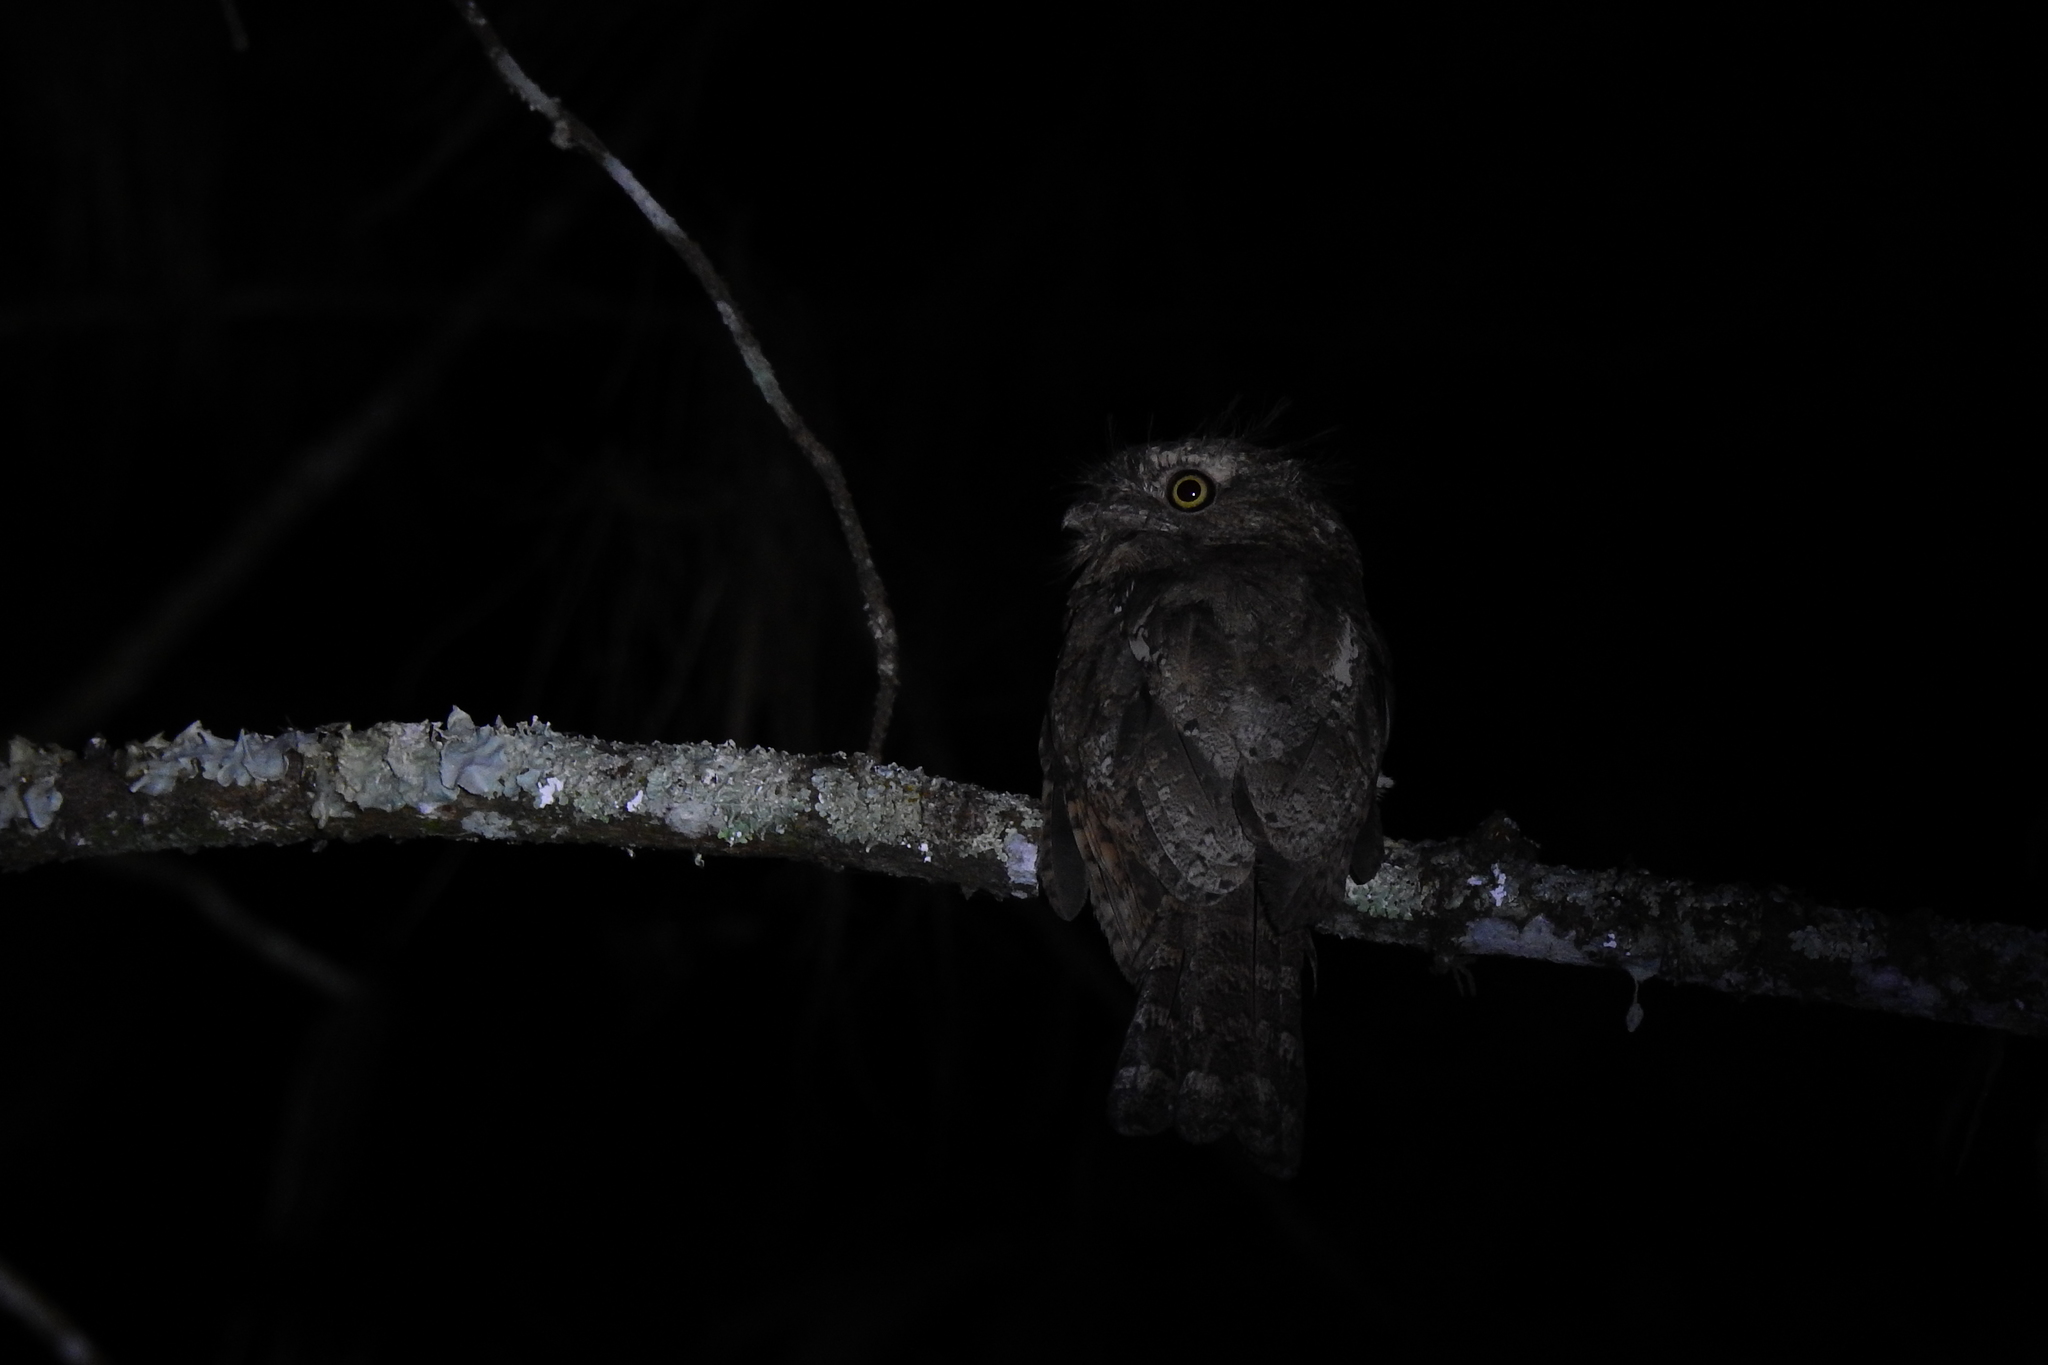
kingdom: Animalia
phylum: Chordata
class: Aves
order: Caprimulgiformes
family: Podargidae
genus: Batrachostomus
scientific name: Batrachostomus javensis
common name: Javan frogmouth
